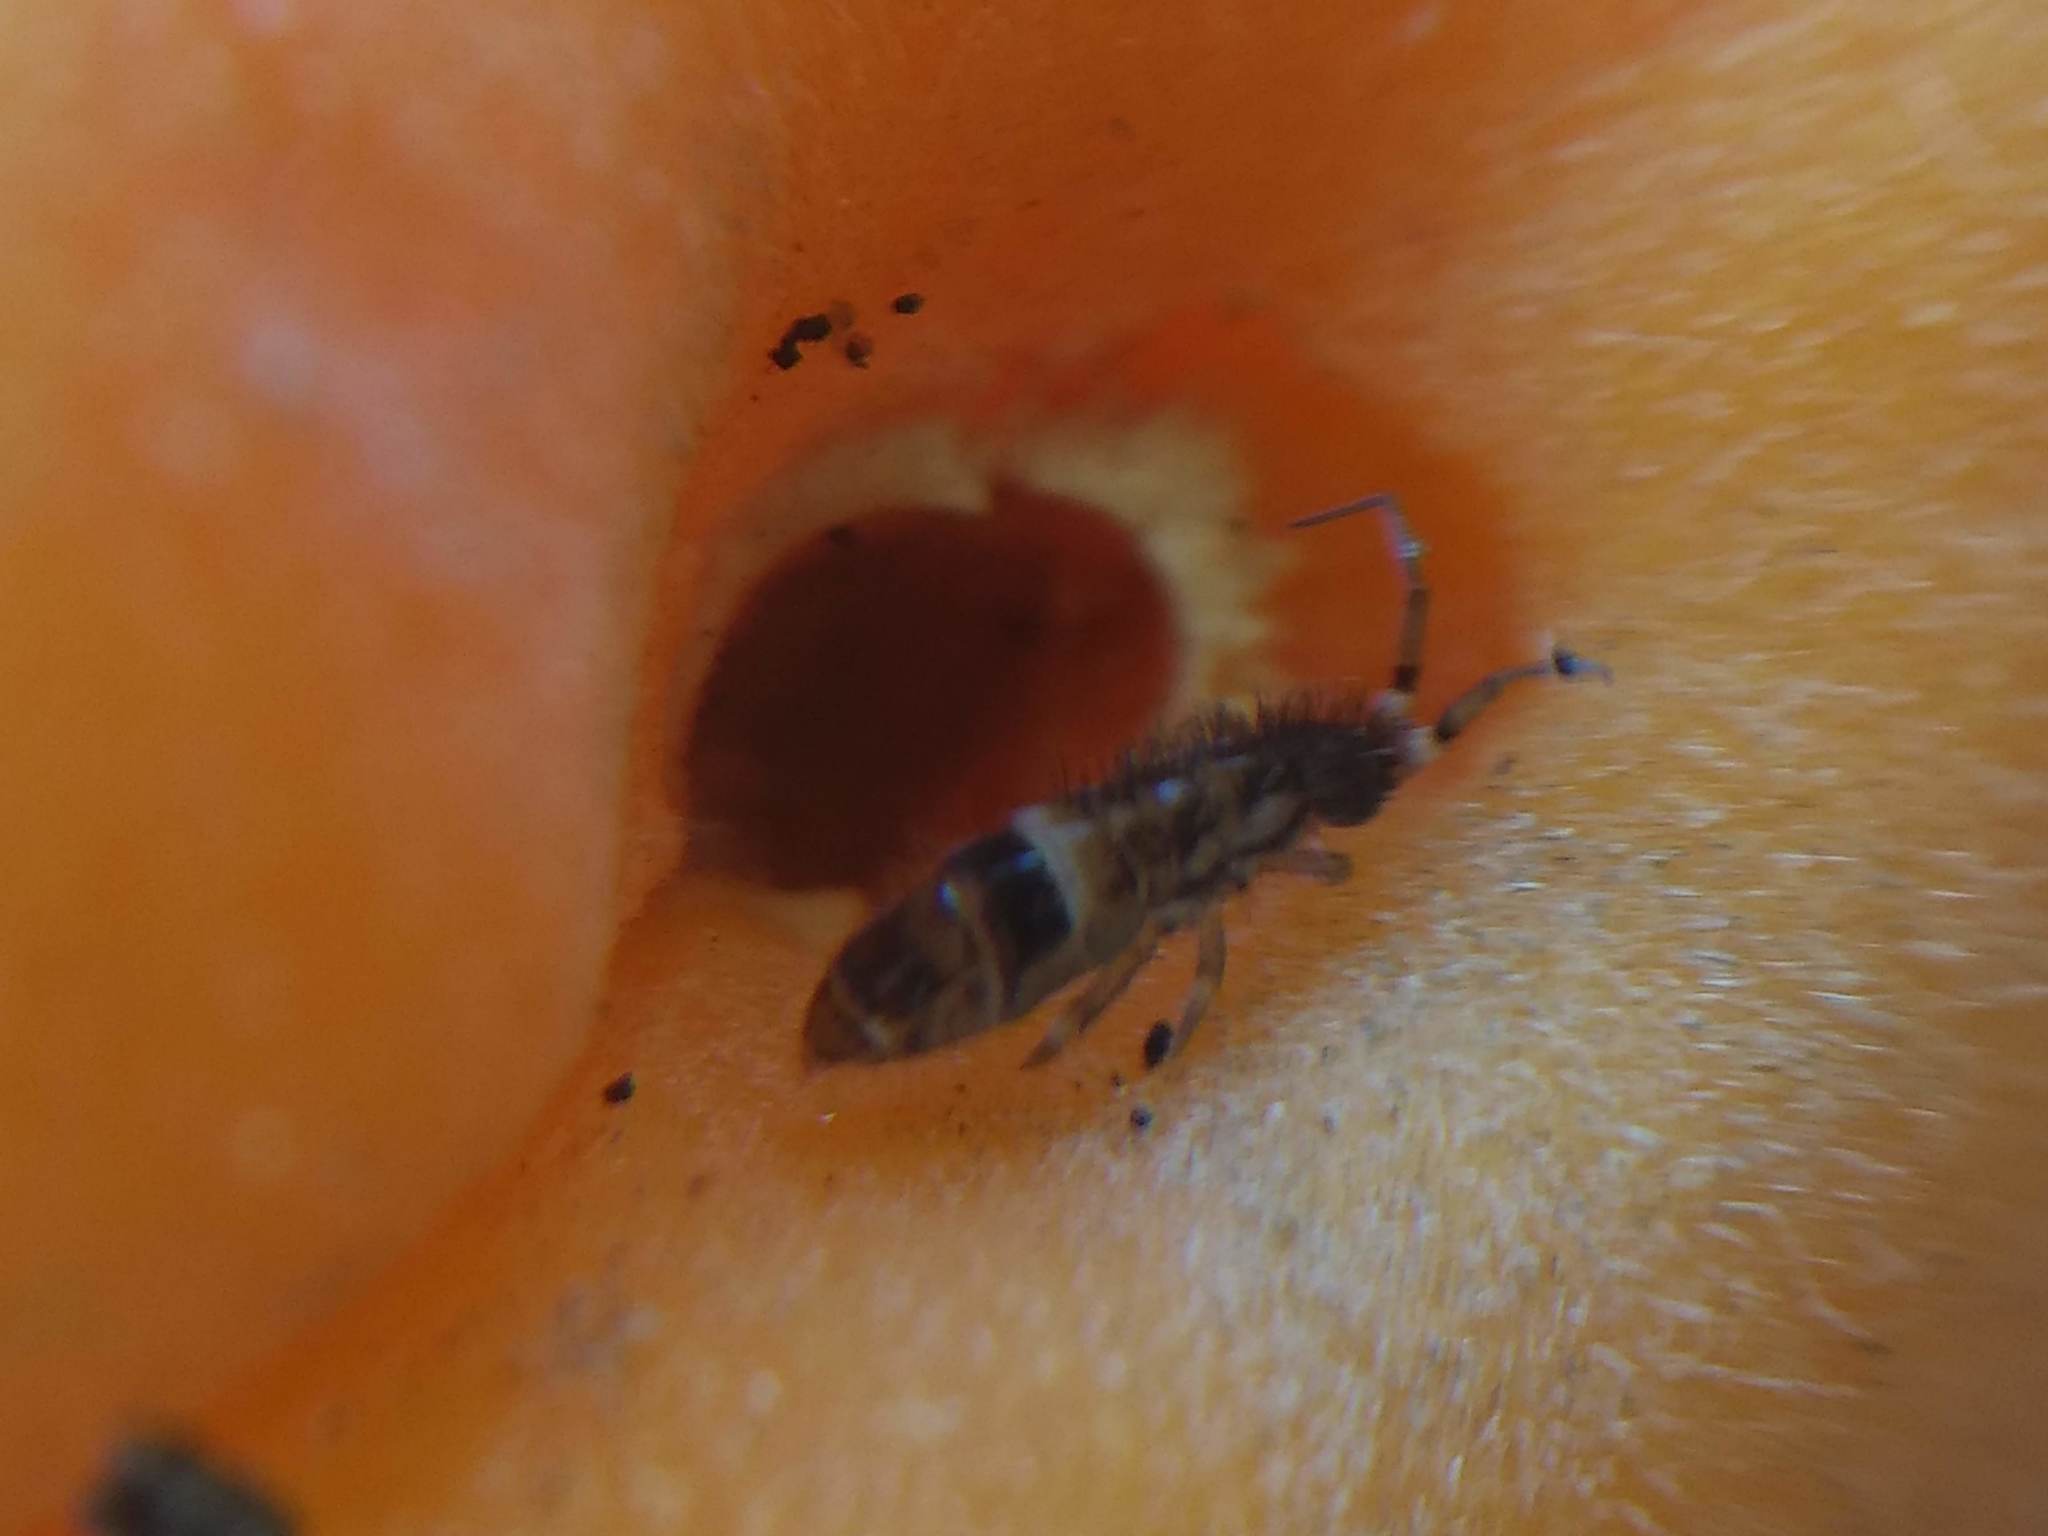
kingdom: Animalia
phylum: Arthropoda
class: Collembola
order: Entomobryomorpha
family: Orchesellidae
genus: Orchesella
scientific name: Orchesella cincta
